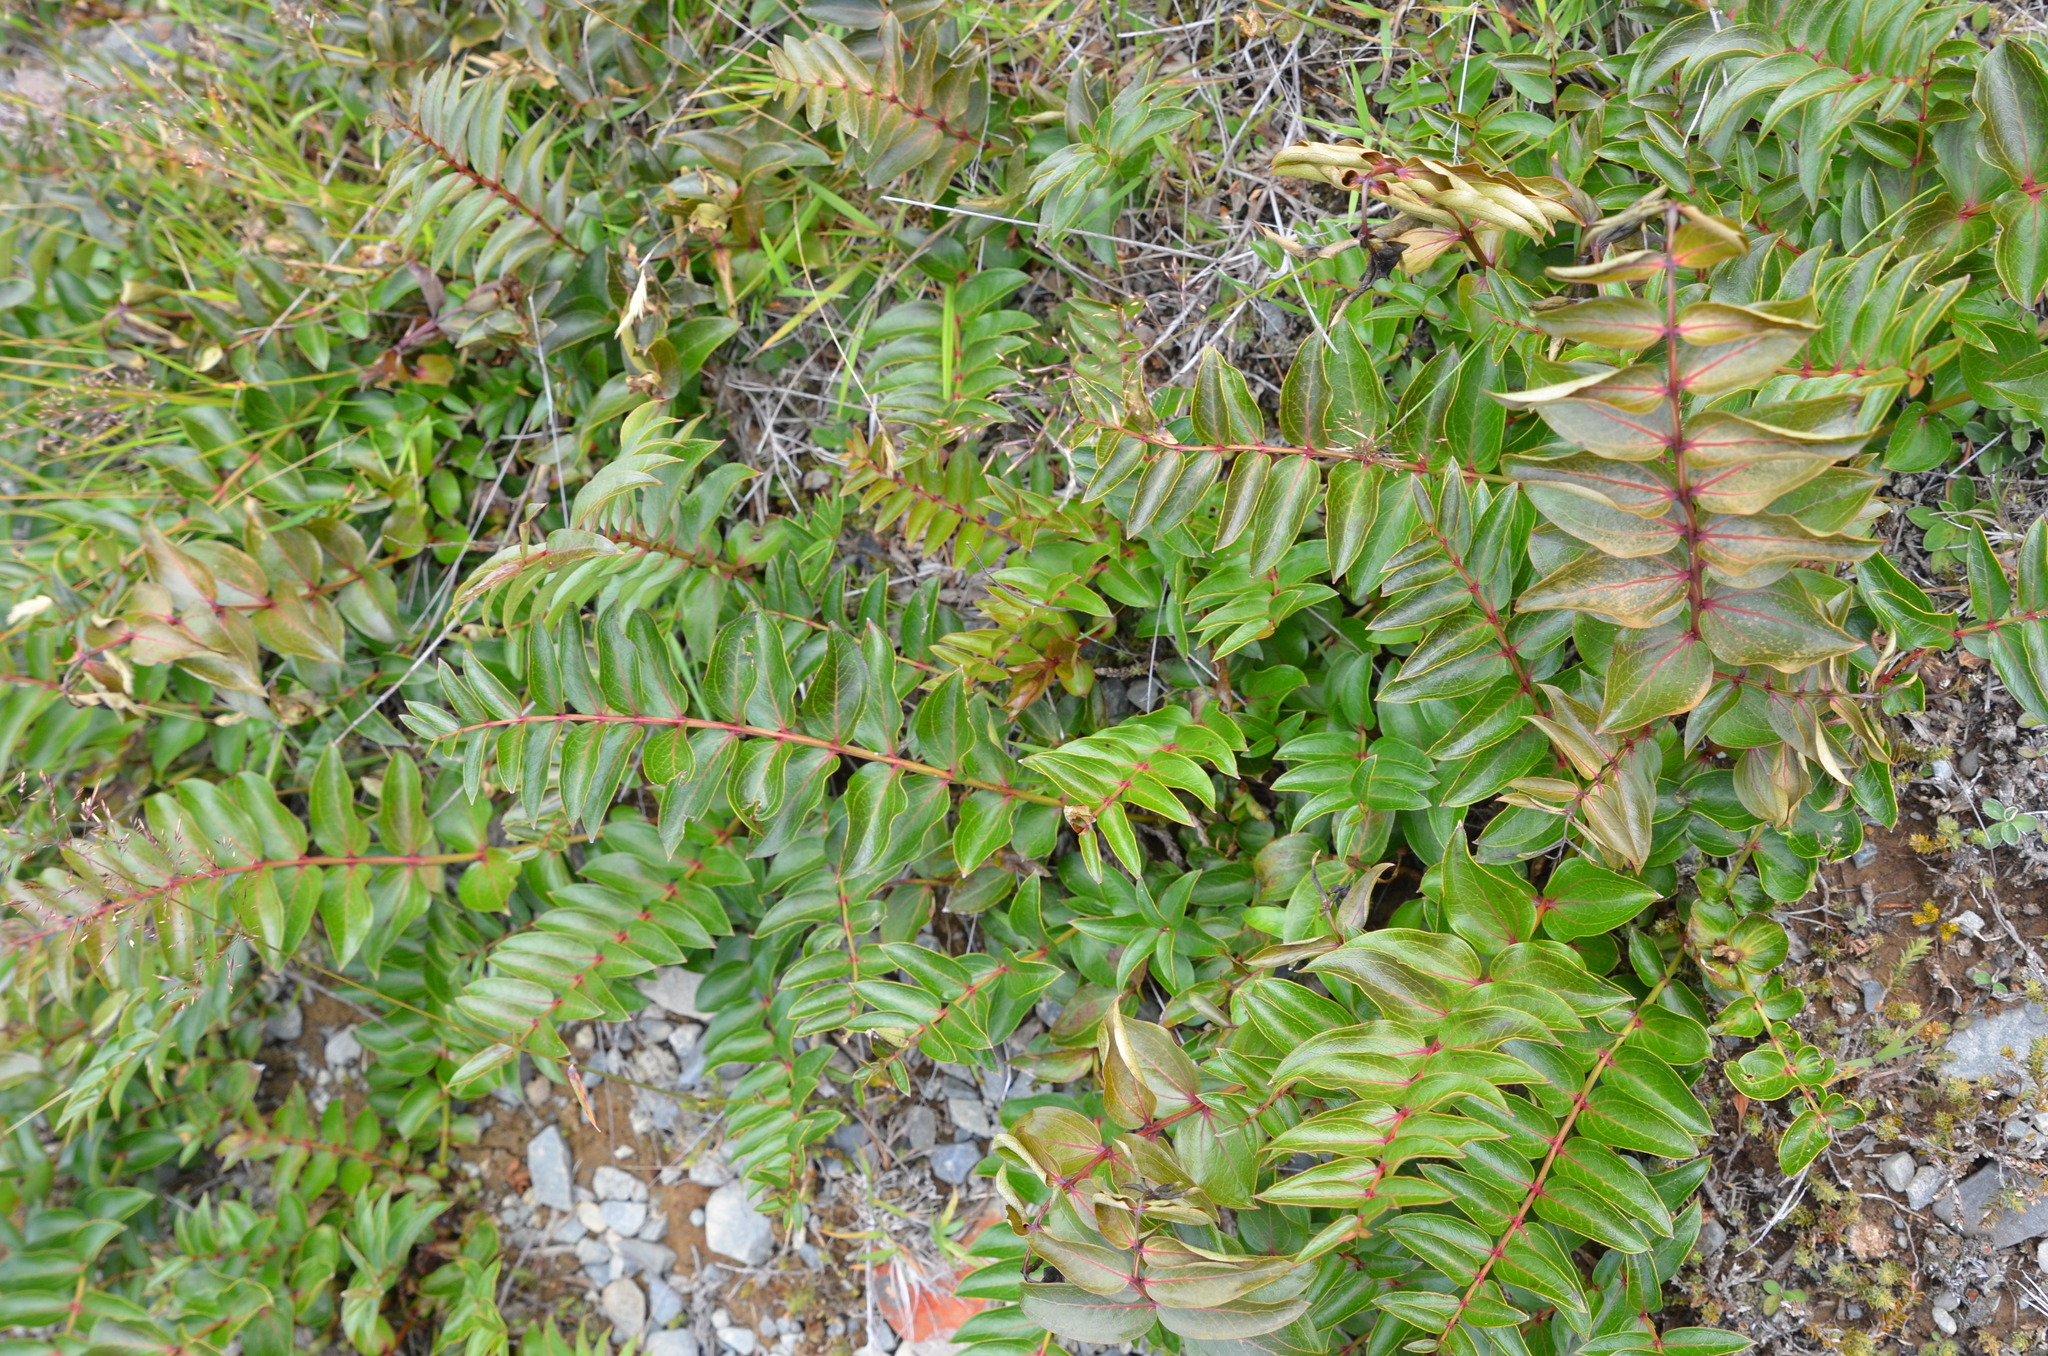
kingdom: Plantae
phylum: Tracheophyta
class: Magnoliopsida
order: Cucurbitales
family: Coriariaceae
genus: Coriaria
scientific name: Coriaria sarmentosa
